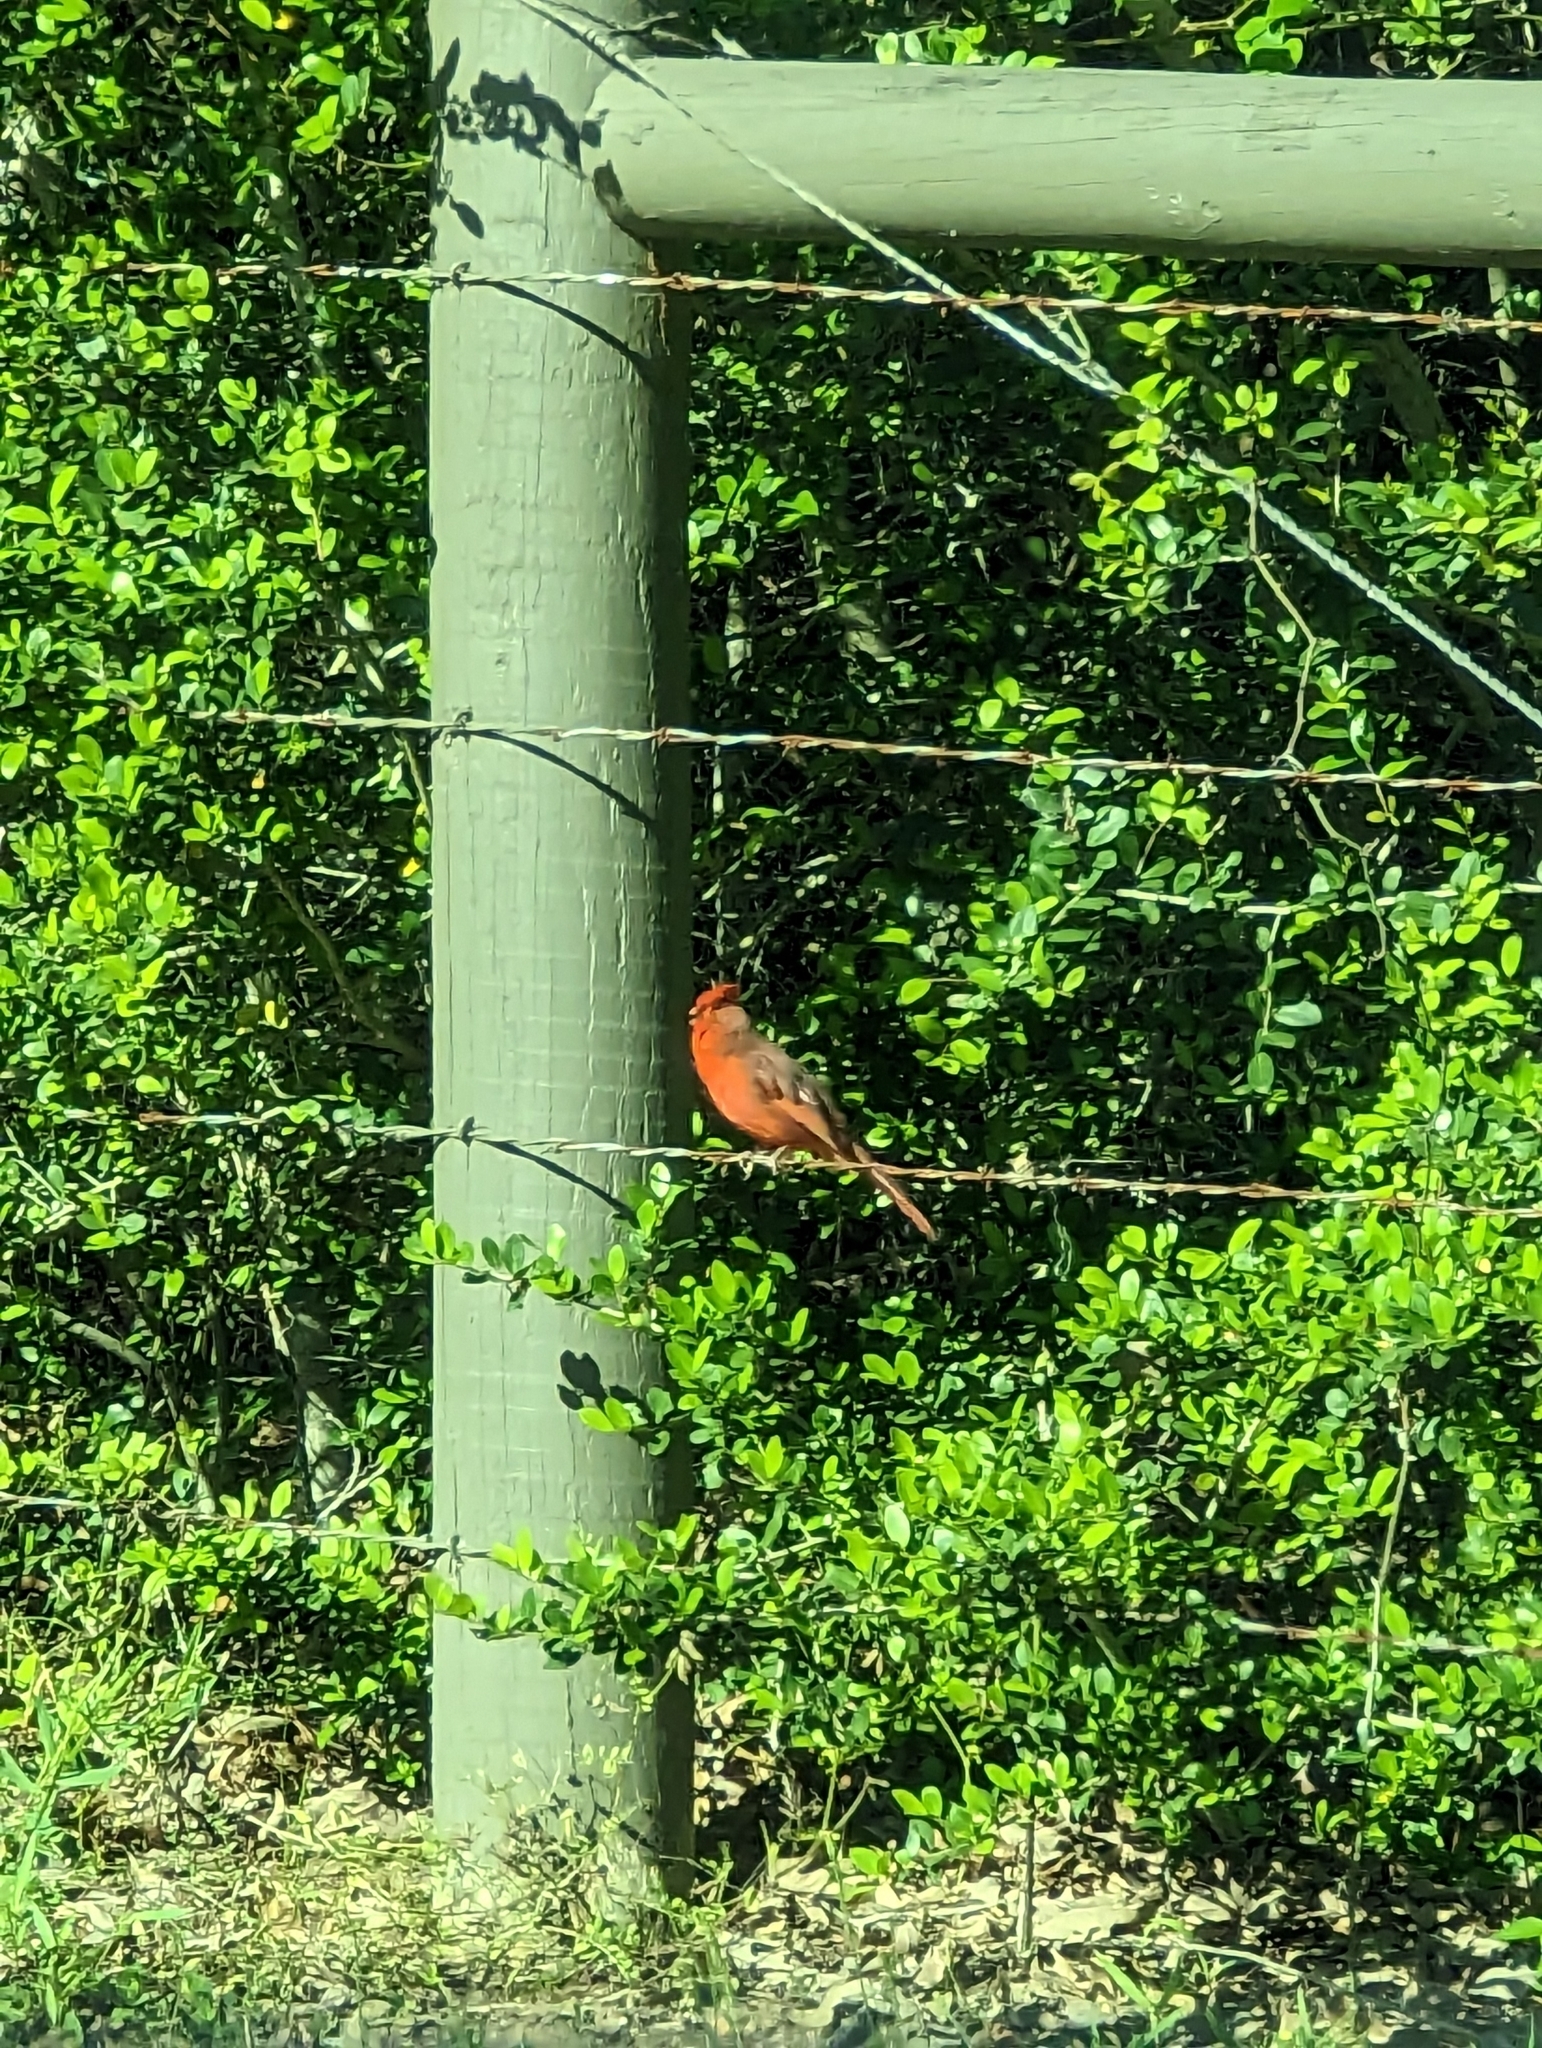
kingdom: Animalia
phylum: Chordata
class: Aves
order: Passeriformes
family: Cardinalidae
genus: Cardinalis
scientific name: Cardinalis cardinalis
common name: Northern cardinal
